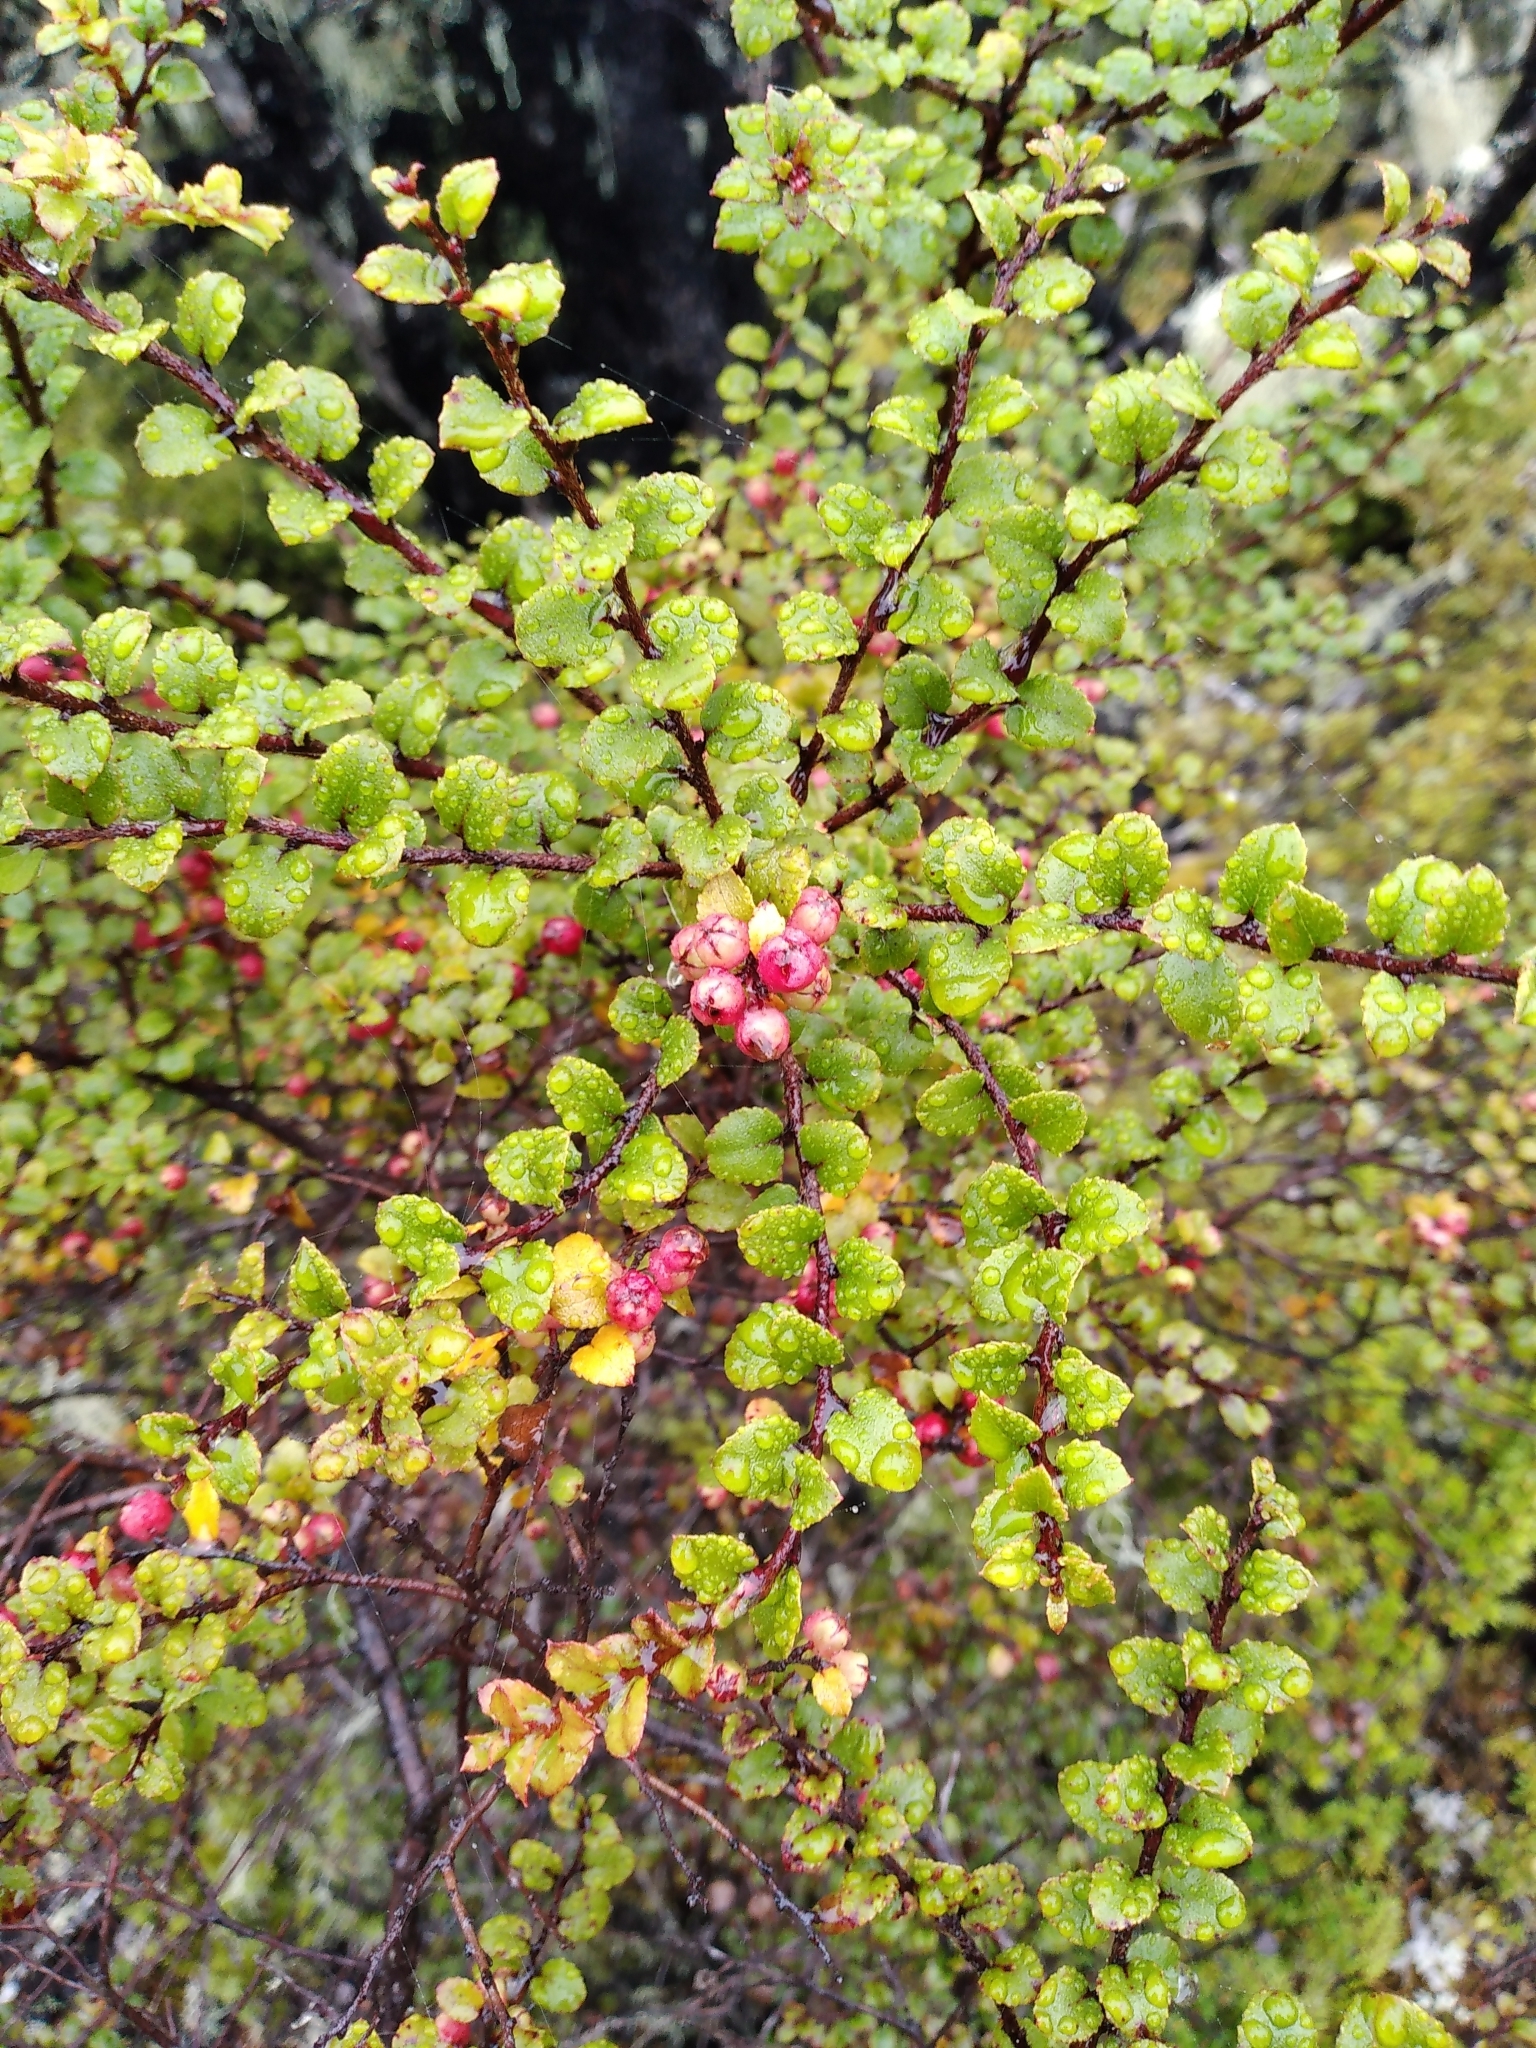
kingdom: Plantae
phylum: Tracheophyta
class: Magnoliopsida
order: Ericales
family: Ericaceae
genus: Gaultheria
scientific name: Gaultheria antipoda
